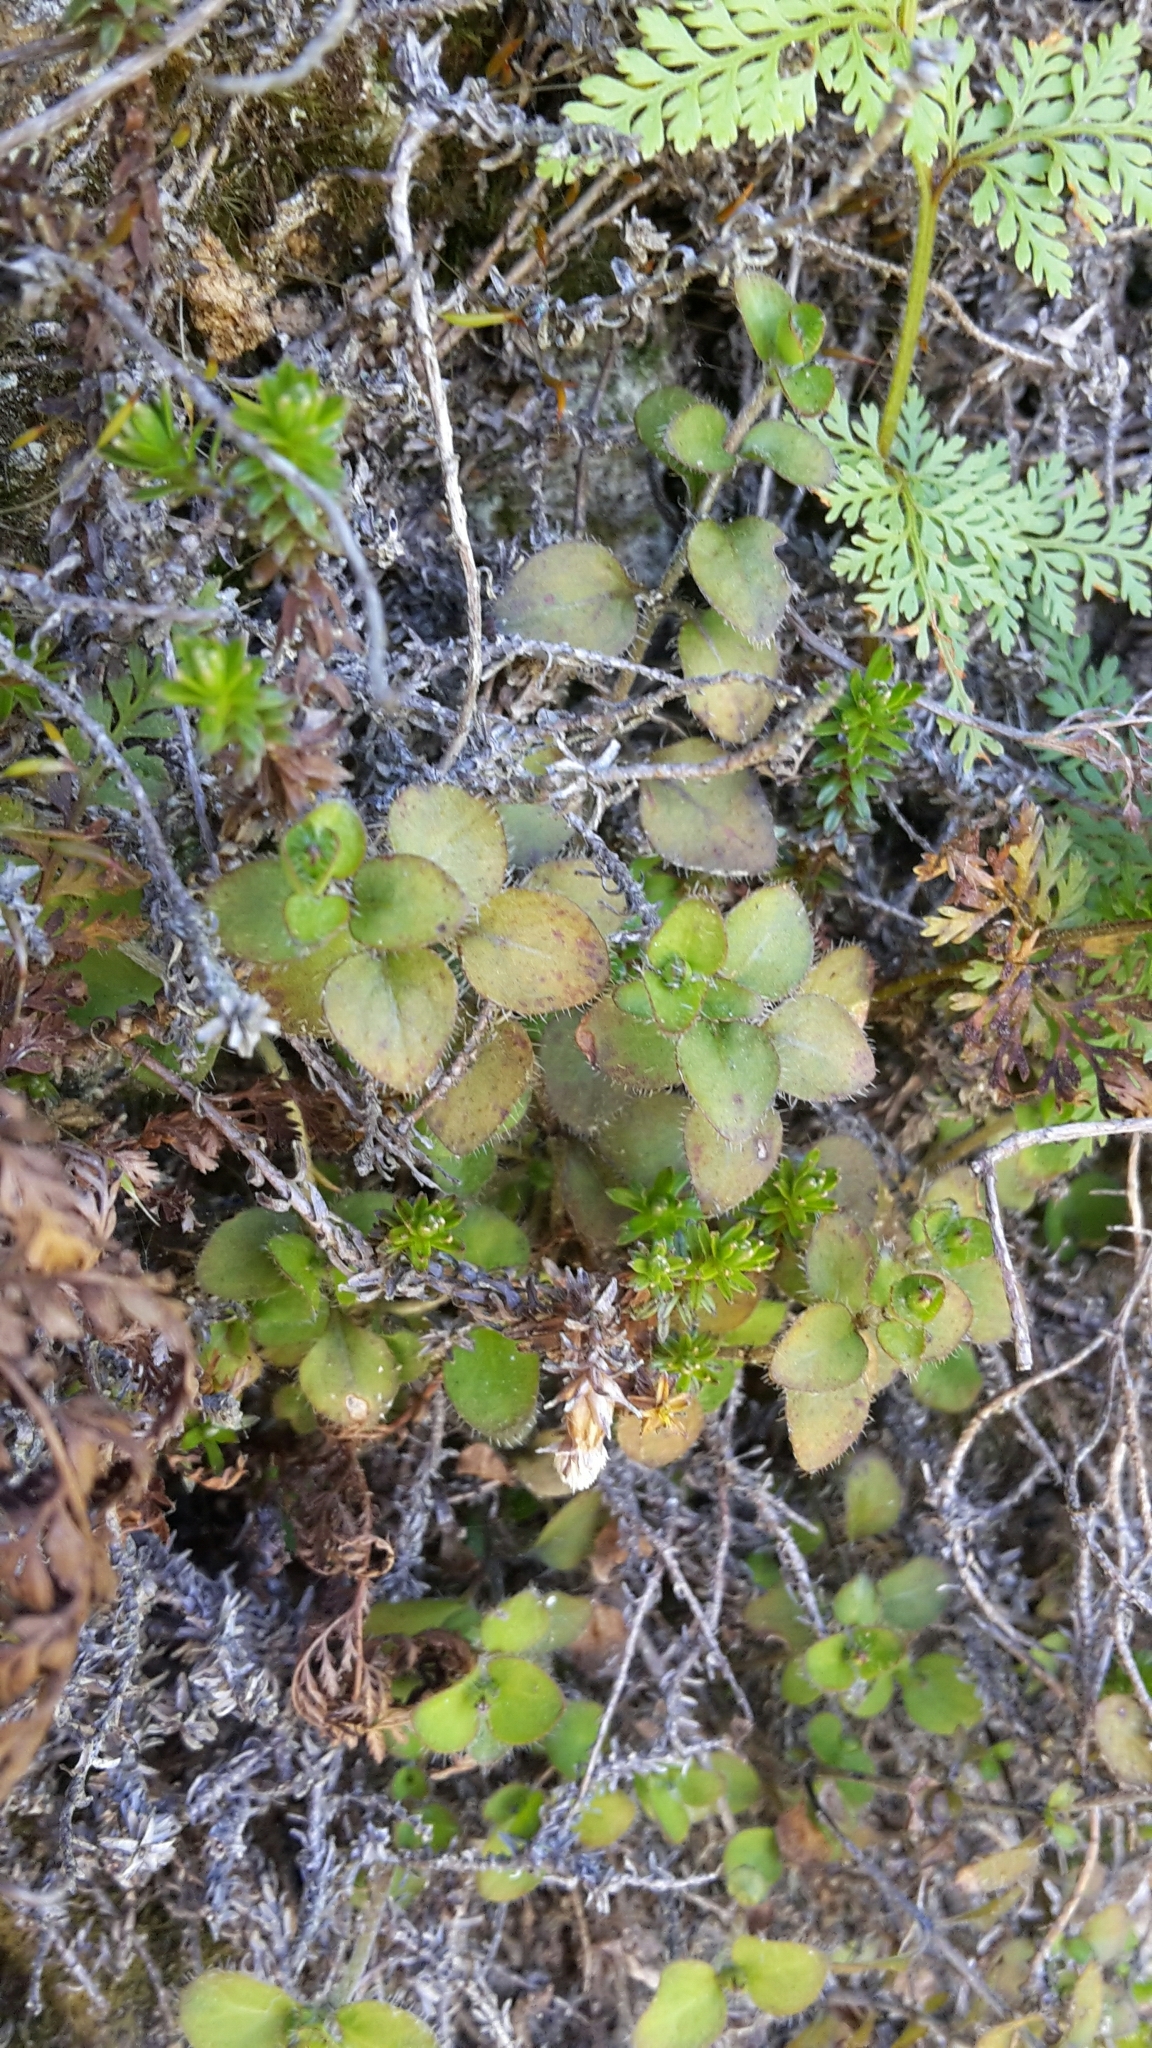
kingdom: Plantae
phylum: Tracheophyta
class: Magnoliopsida
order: Gentianales
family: Rubiaceae
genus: Leptostigma
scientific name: Leptostigma setulosum
